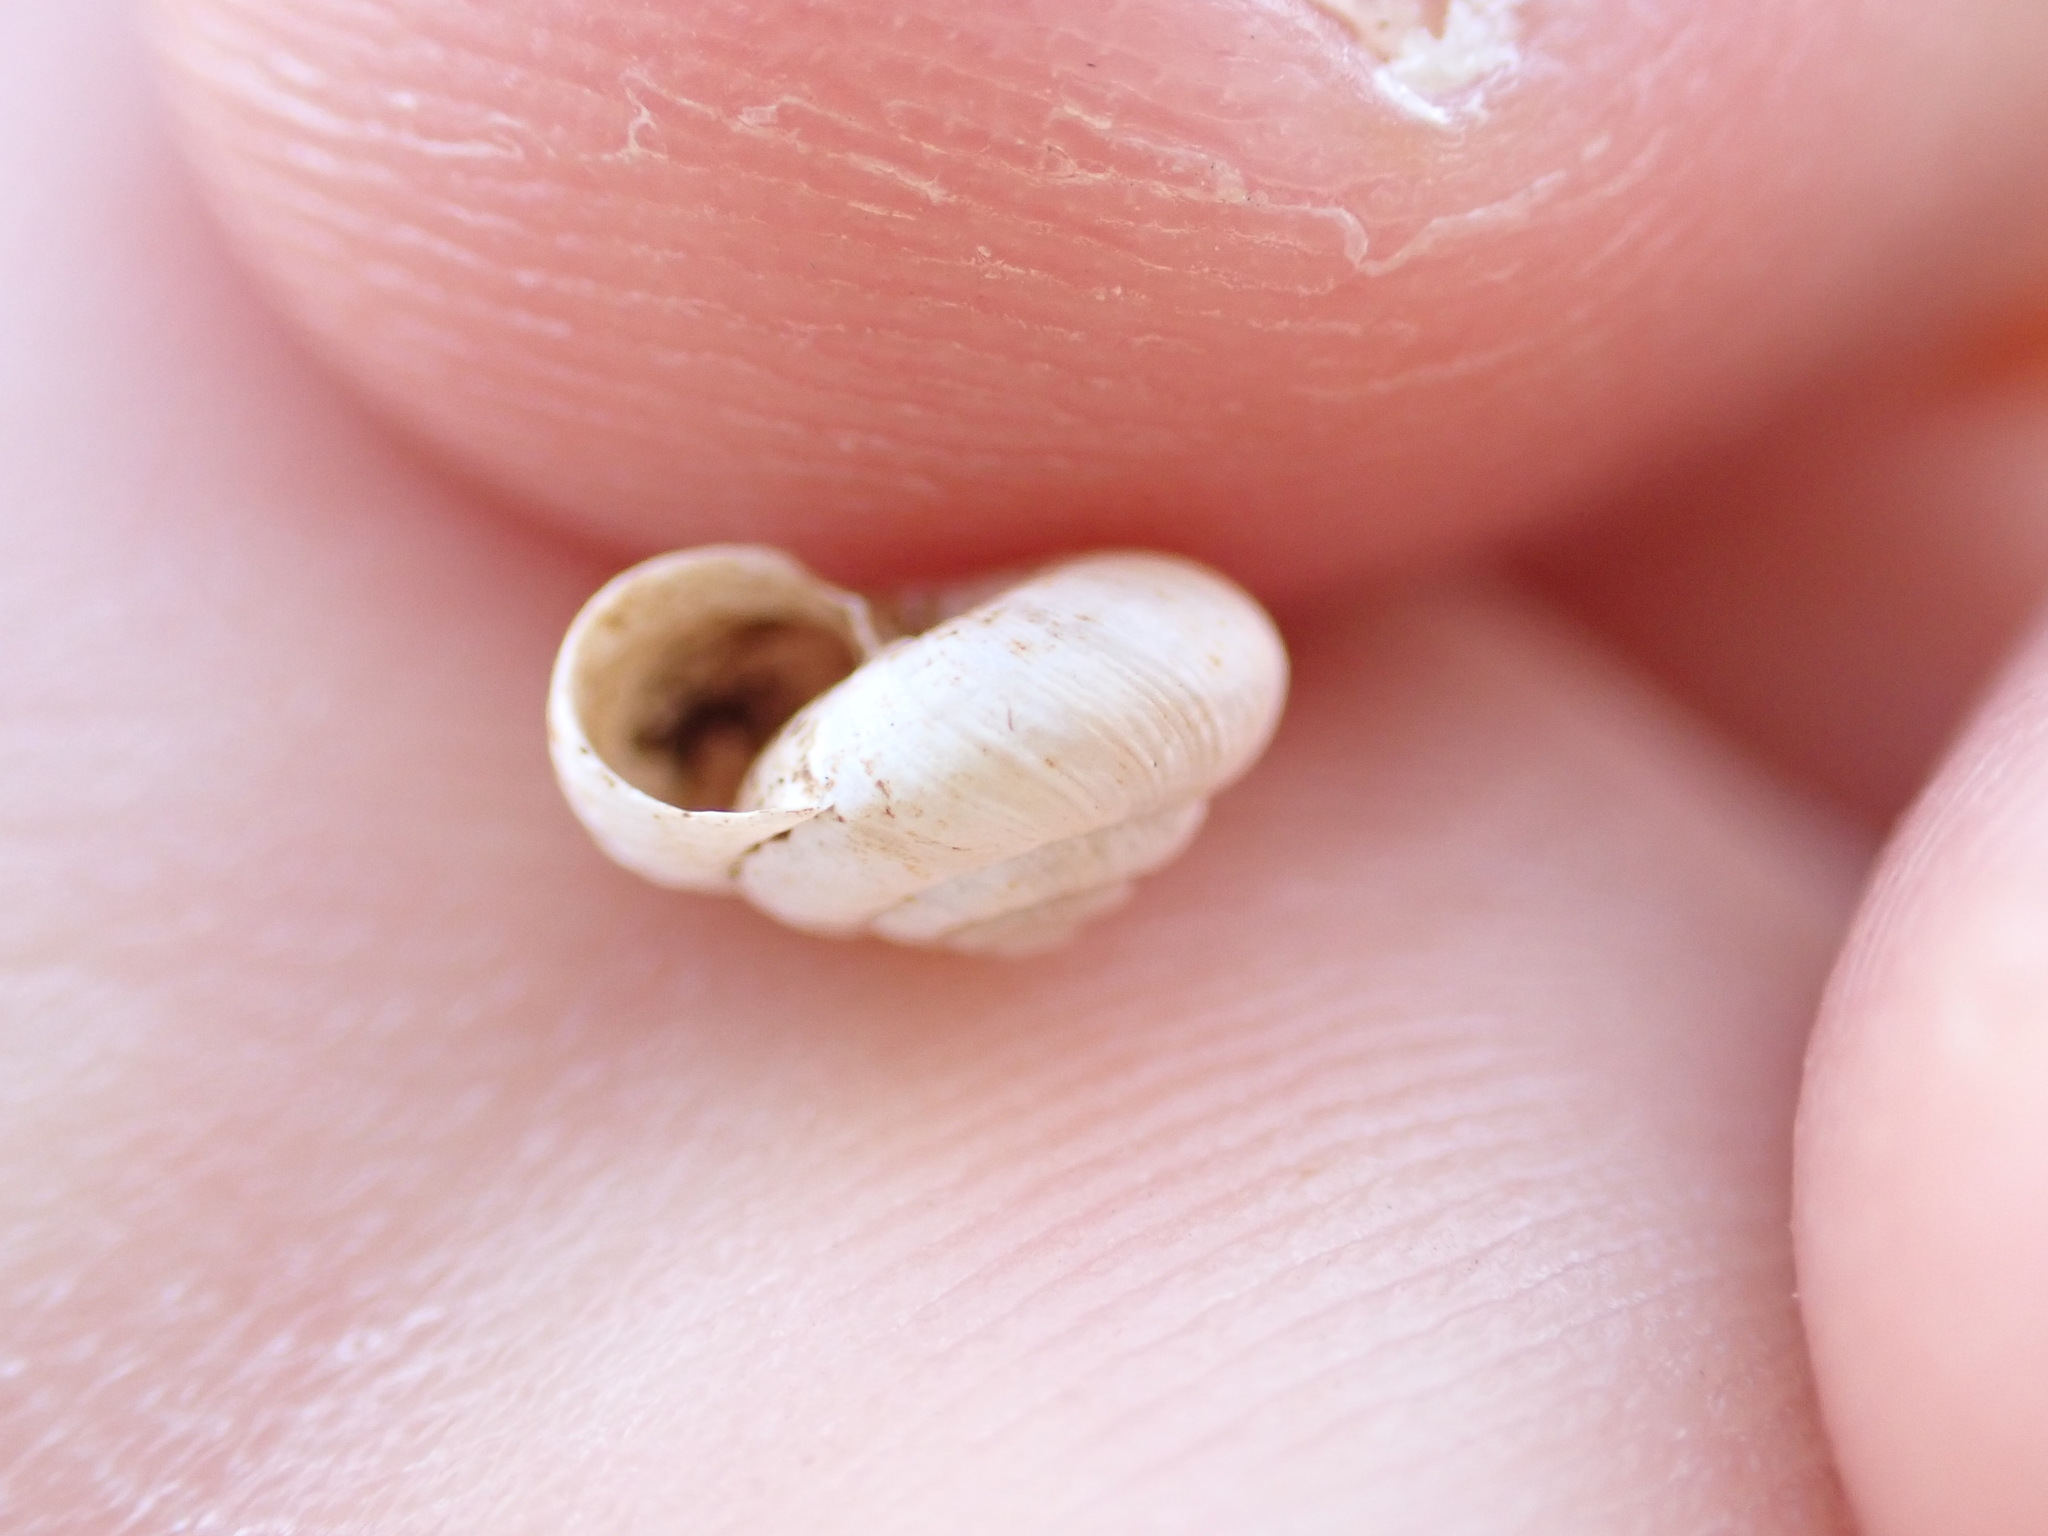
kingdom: Animalia
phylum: Mollusca
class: Gastropoda
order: Stylommatophora
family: Geomitridae
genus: Candidula
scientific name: Candidula rugosiuscula
